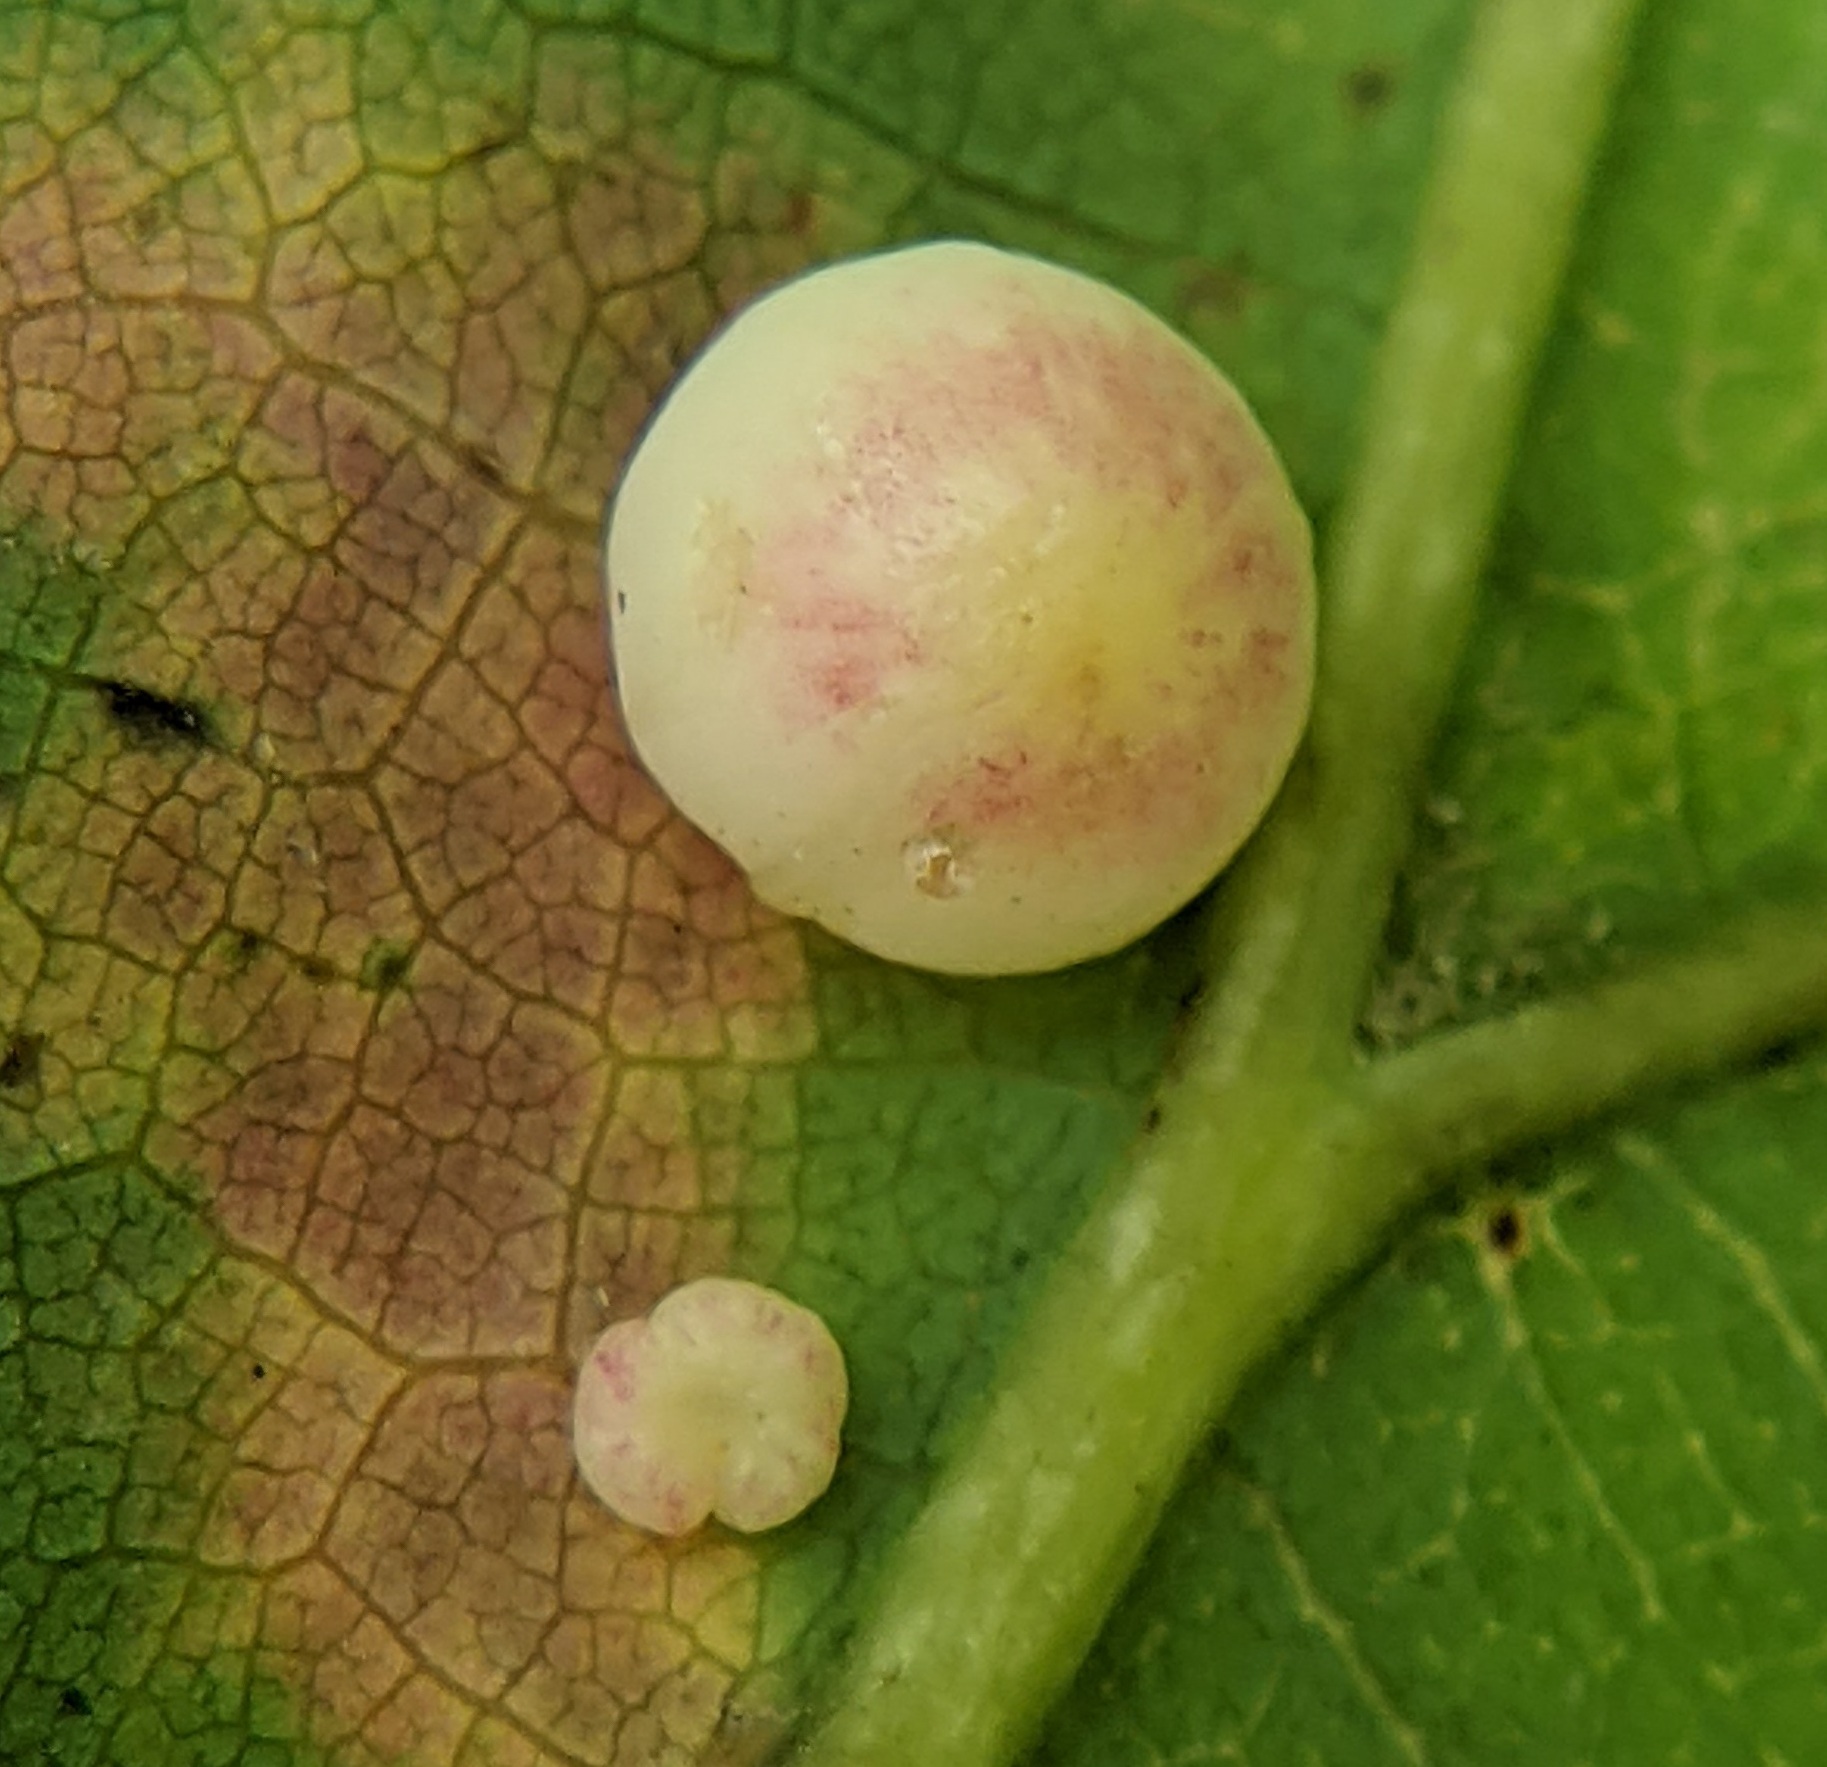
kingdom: Animalia
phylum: Arthropoda
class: Insecta
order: Hymenoptera
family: Cynipidae
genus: Zopheroteras
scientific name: Zopheroteras
